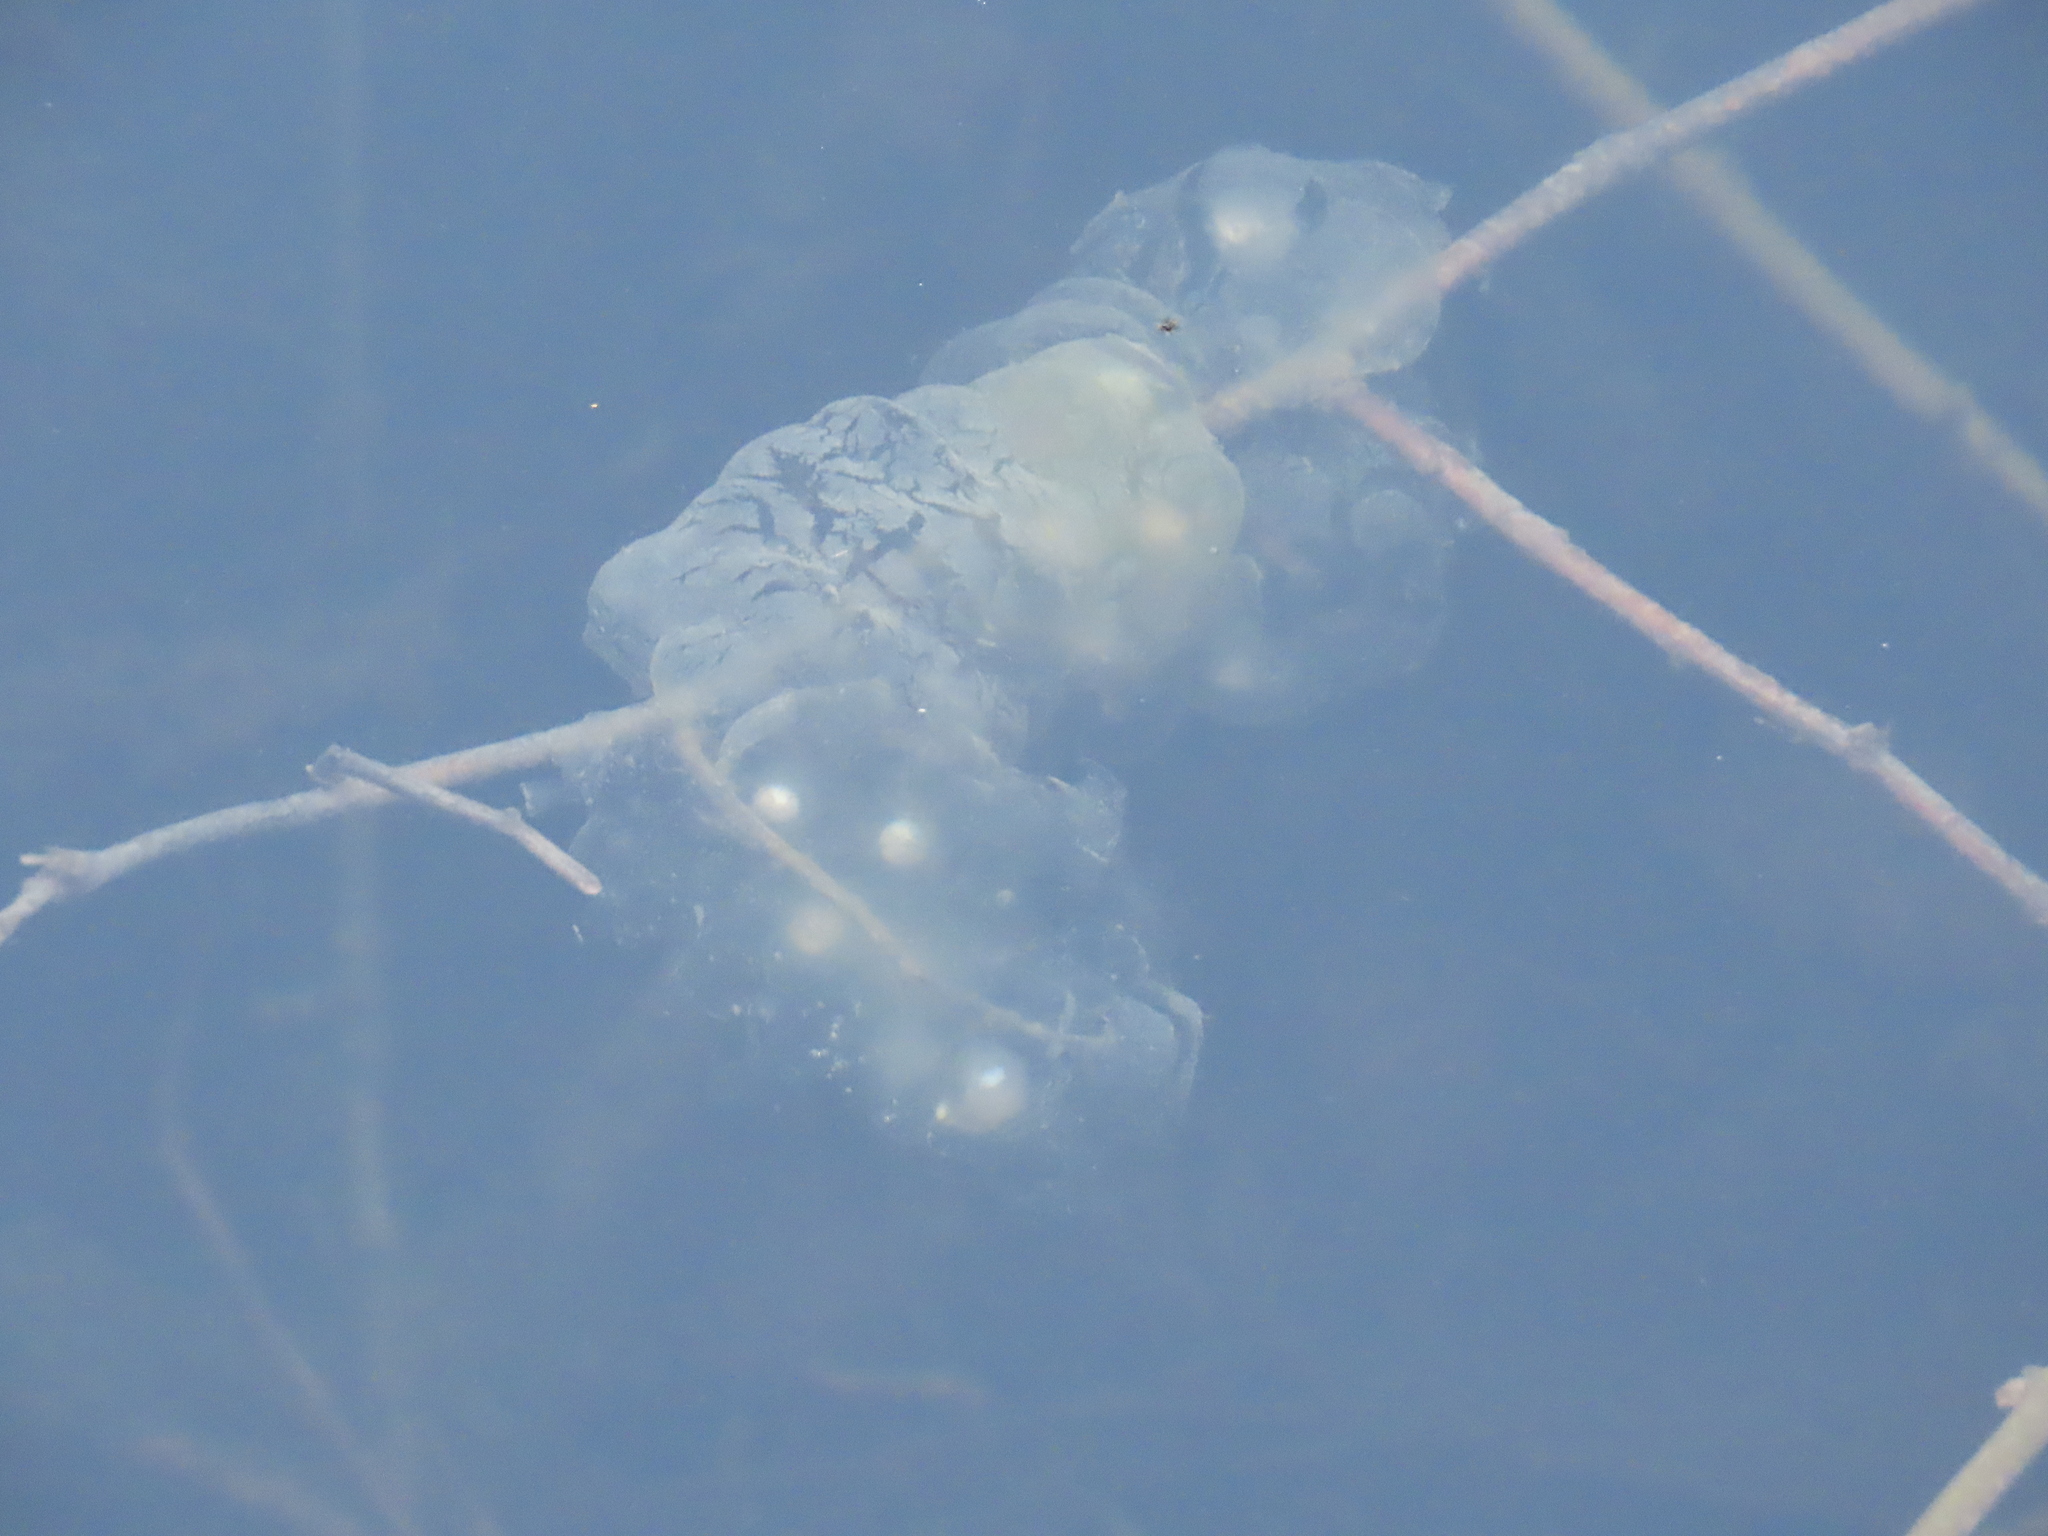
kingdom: Animalia
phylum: Chordata
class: Amphibia
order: Caudata
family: Ambystomatidae
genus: Ambystoma
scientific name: Ambystoma
